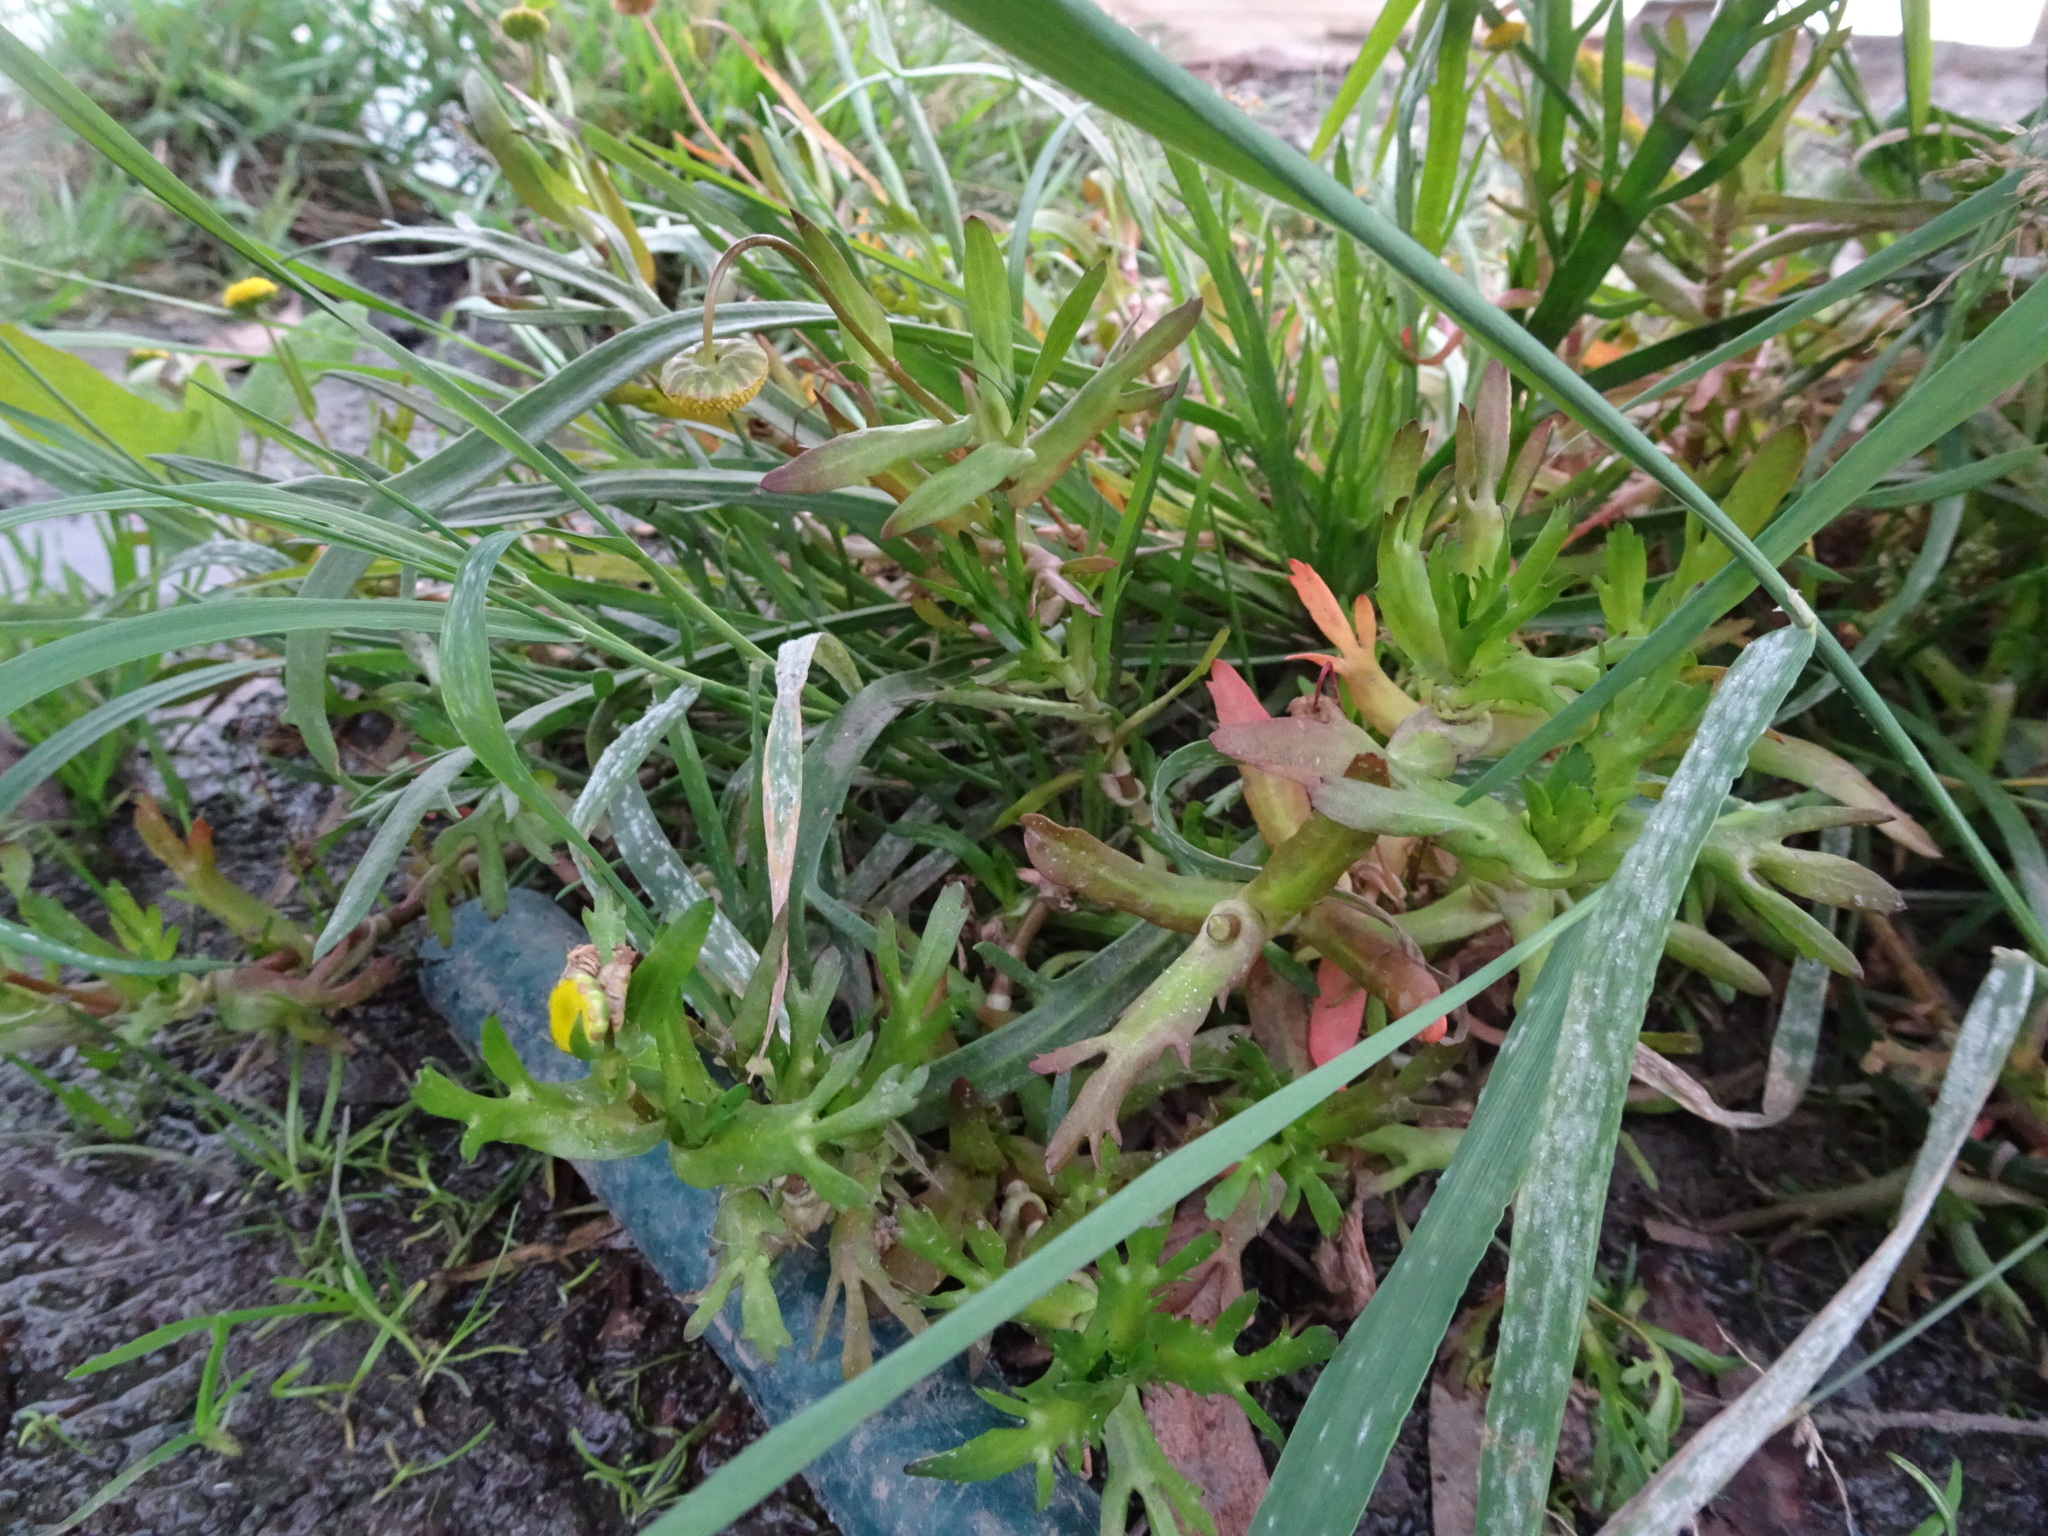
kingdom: Plantae
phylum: Tracheophyta
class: Magnoliopsida
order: Asterales
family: Asteraceae
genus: Cotula
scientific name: Cotula coronopifolia
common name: Buttonweed
